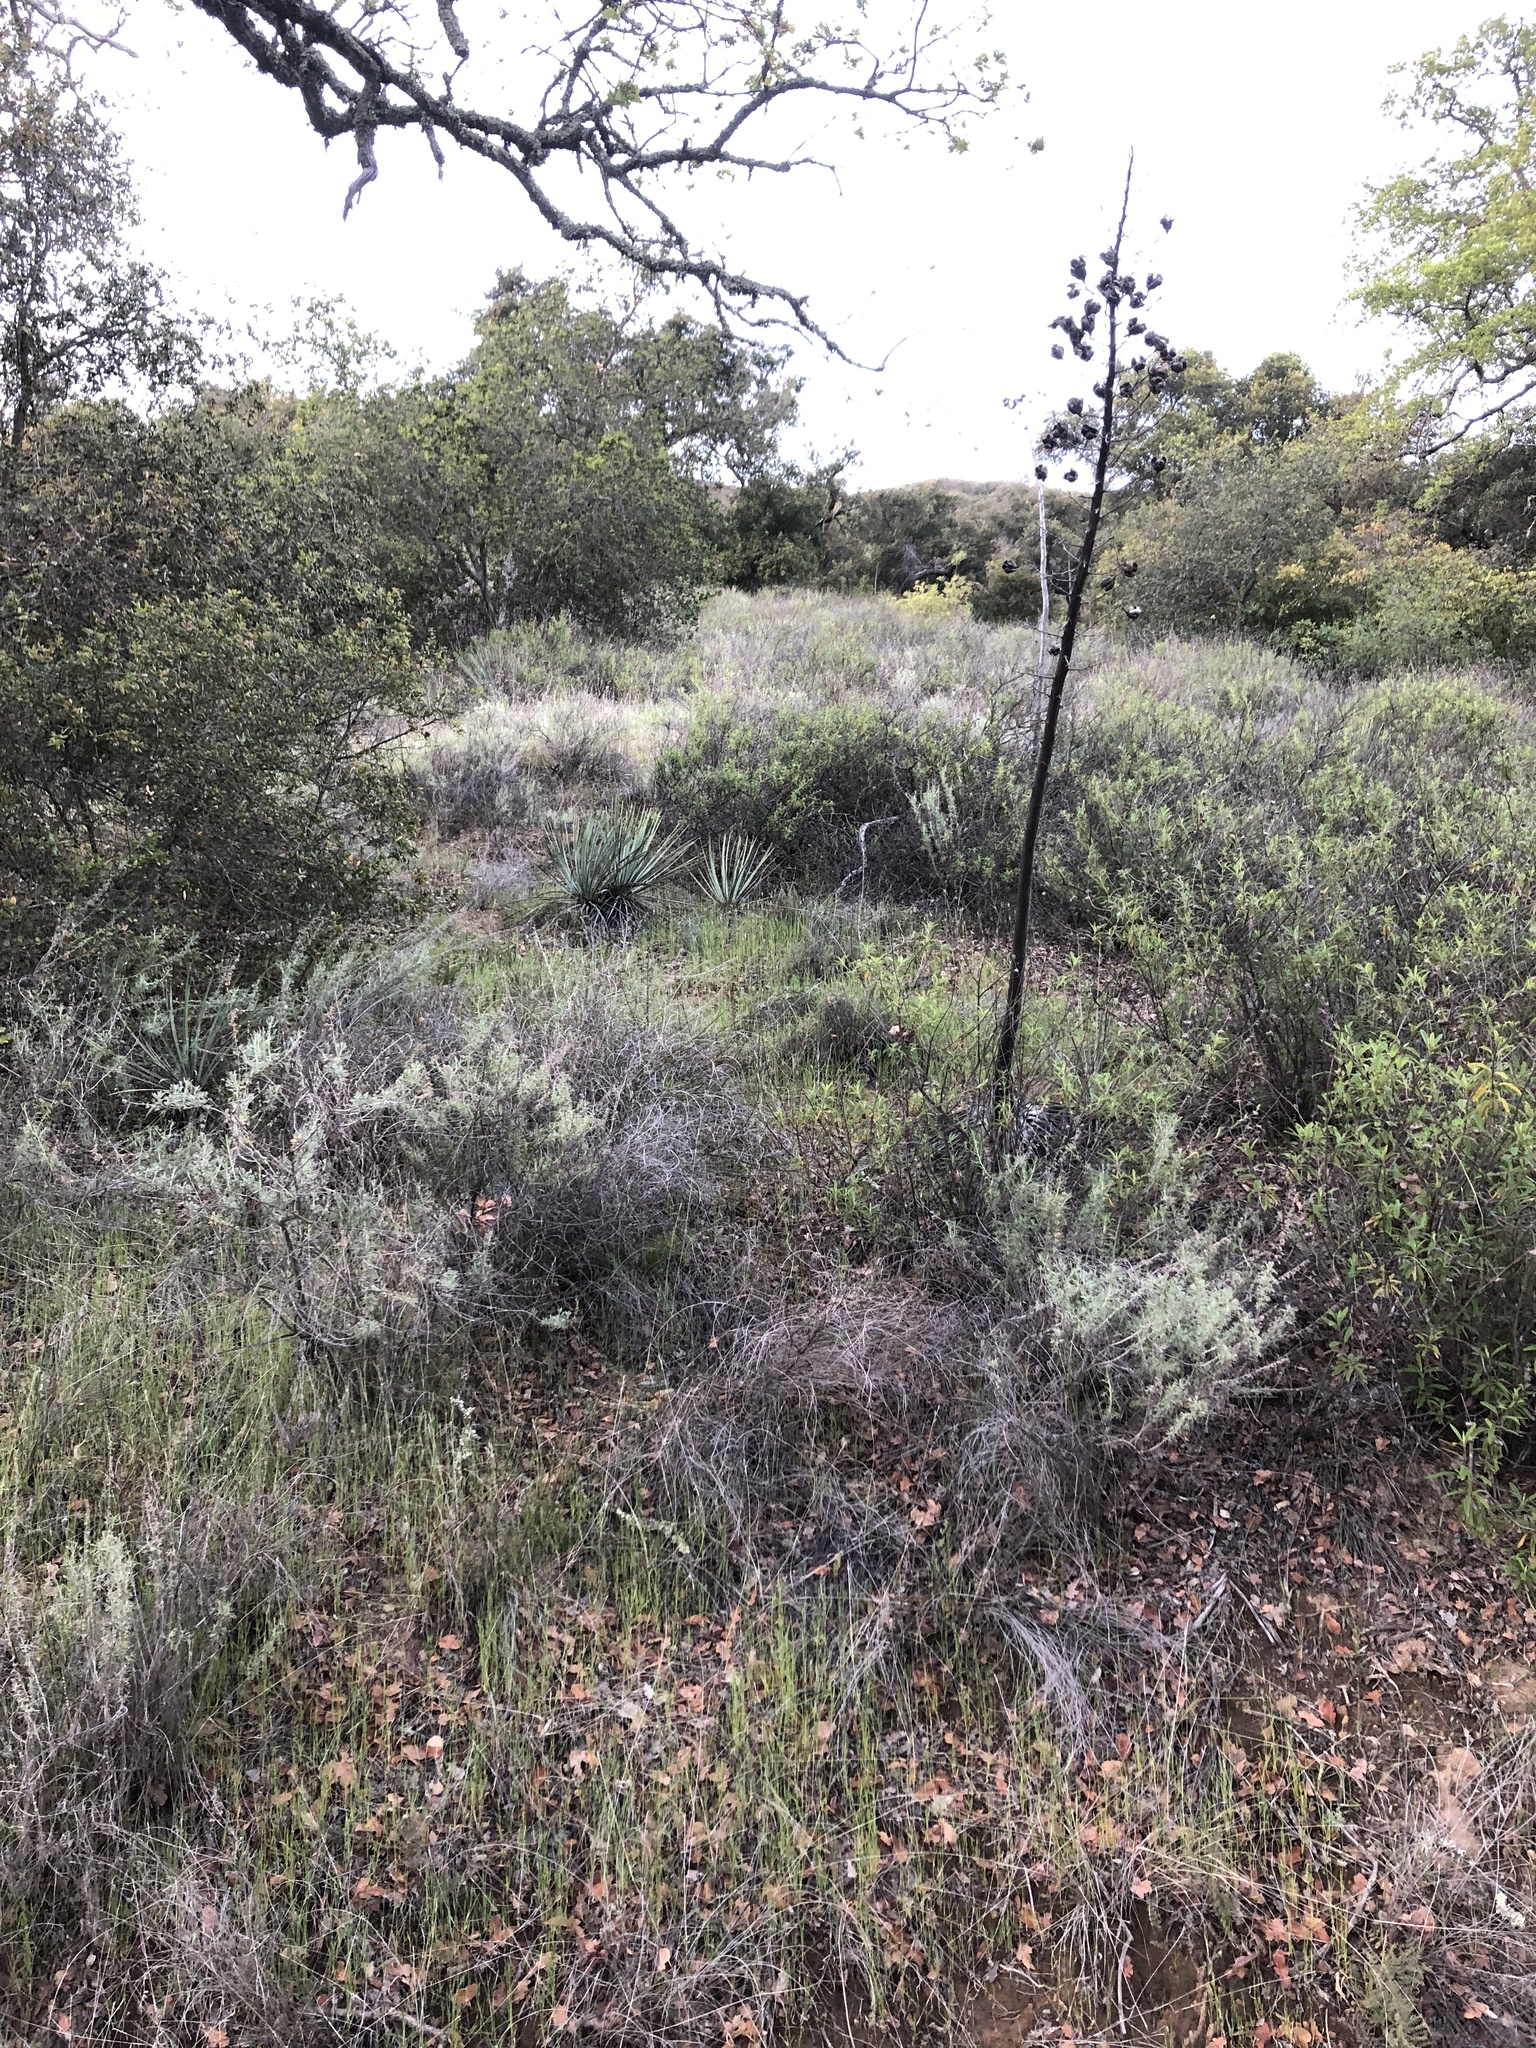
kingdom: Plantae
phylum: Tracheophyta
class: Liliopsida
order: Asparagales
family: Asparagaceae
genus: Hesperoyucca
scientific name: Hesperoyucca whipplei
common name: Our lord's-candle
